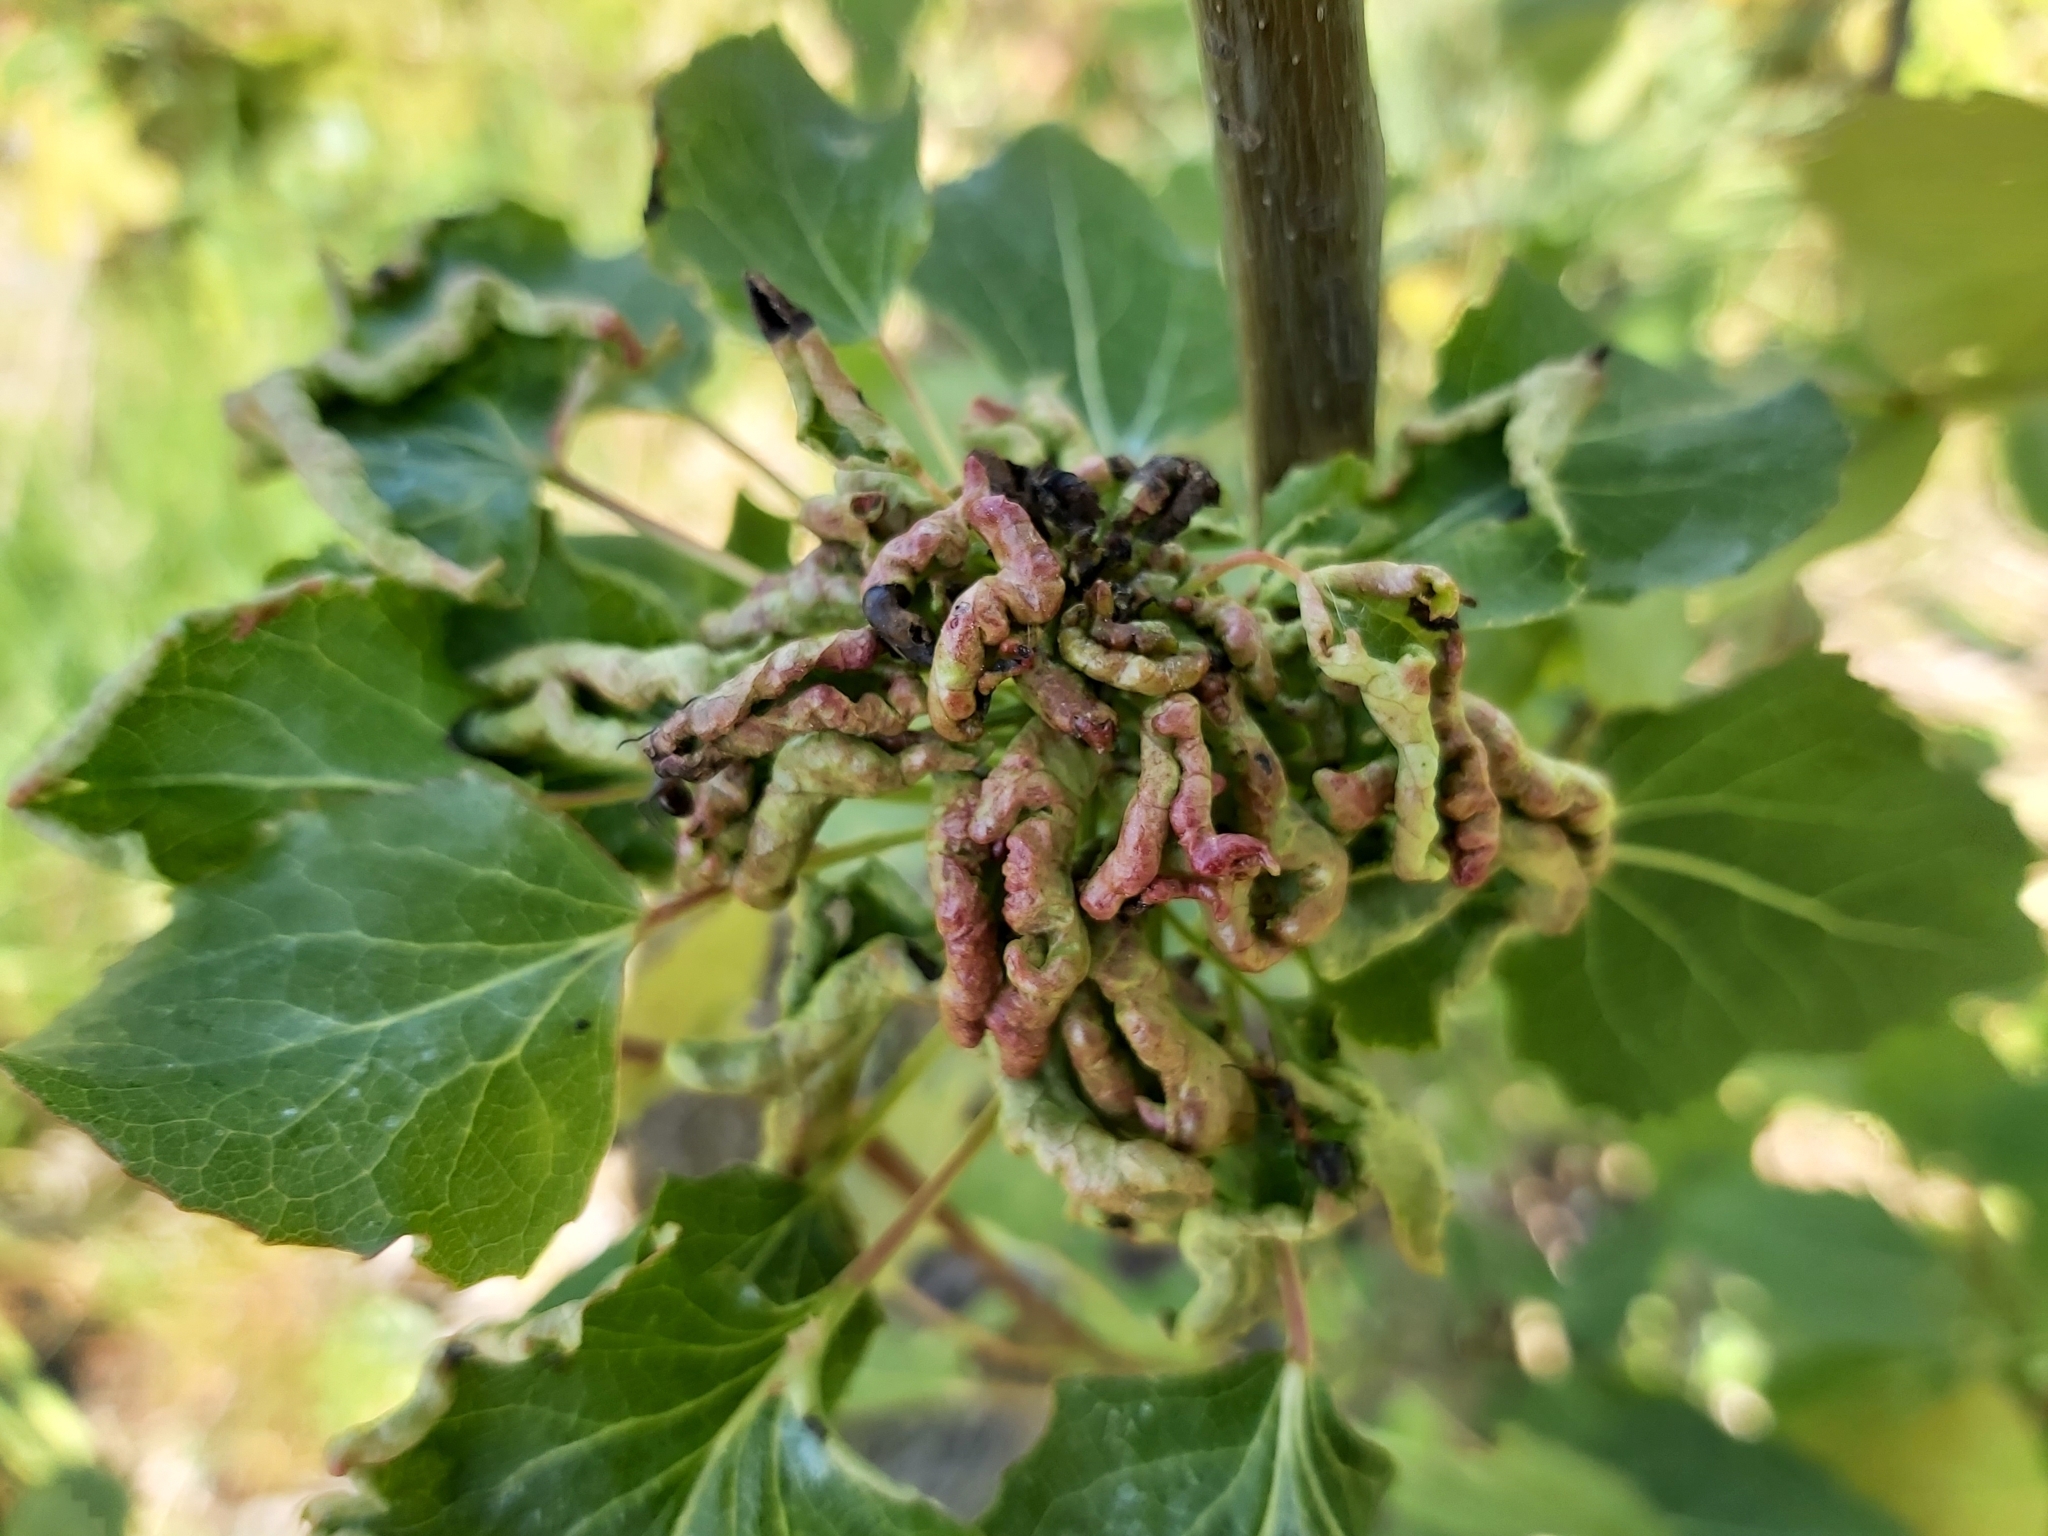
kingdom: Animalia
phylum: Arthropoda
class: Arachnida
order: Trombidiformes
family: Eriophyidae
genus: Aceria
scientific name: Aceria dispar
